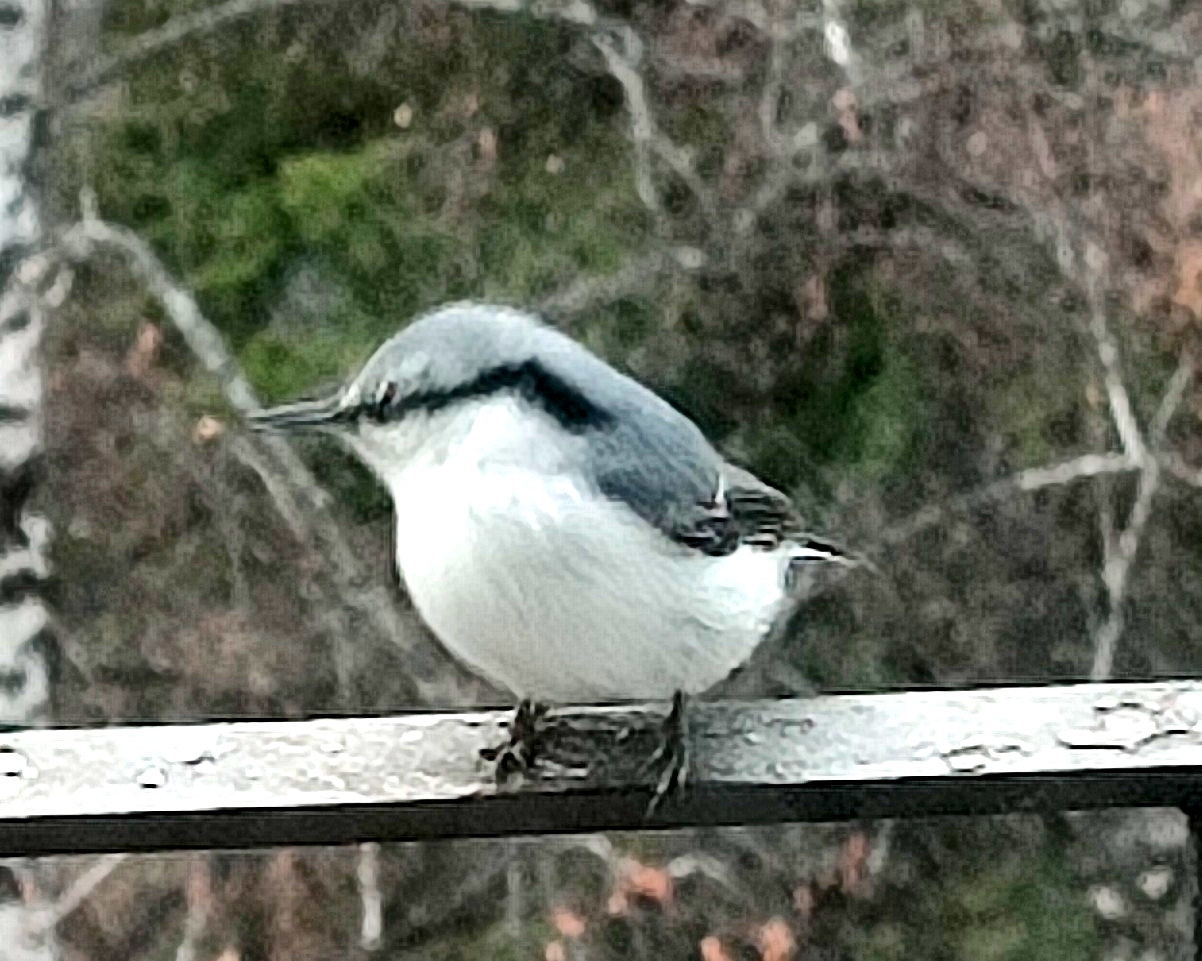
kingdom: Animalia
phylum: Chordata
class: Aves
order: Passeriformes
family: Sittidae
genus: Sitta
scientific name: Sitta europaea
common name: Eurasian nuthatch
